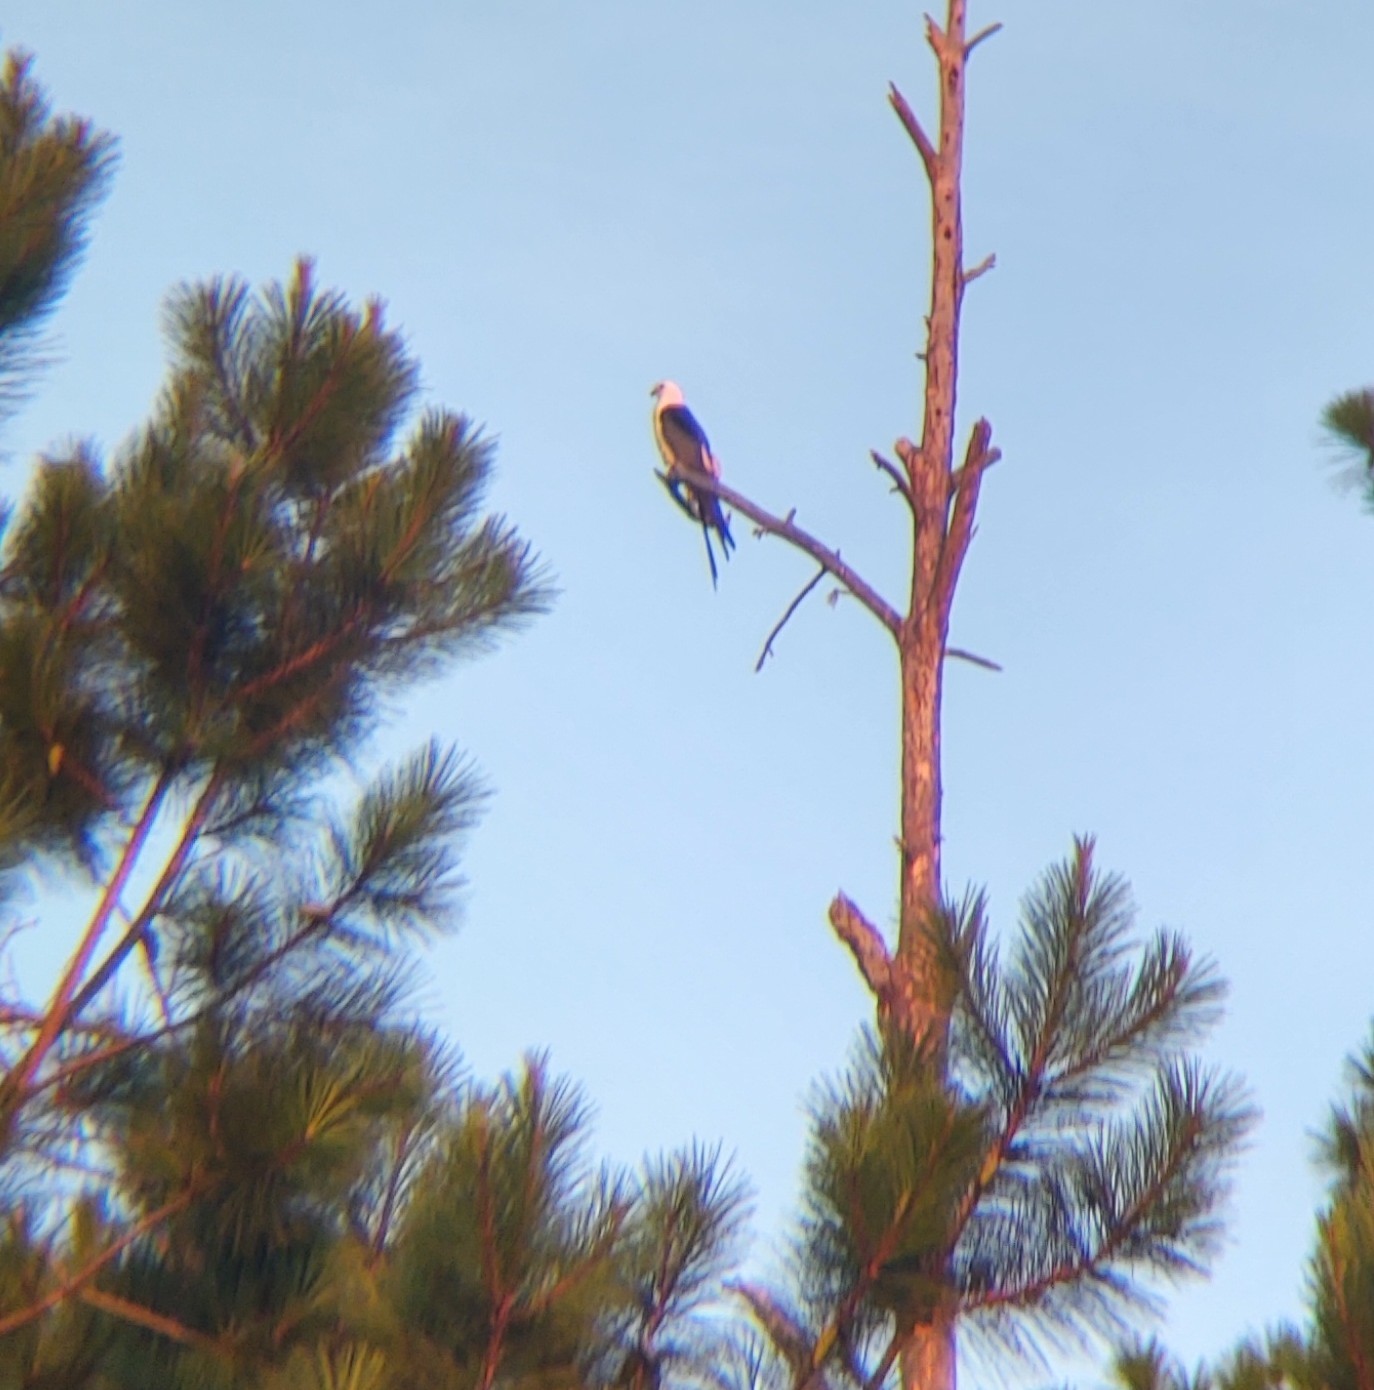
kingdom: Animalia
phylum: Chordata
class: Aves
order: Accipitriformes
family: Accipitridae
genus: Elanoides
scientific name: Elanoides forficatus
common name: Swallow-tailed kite
